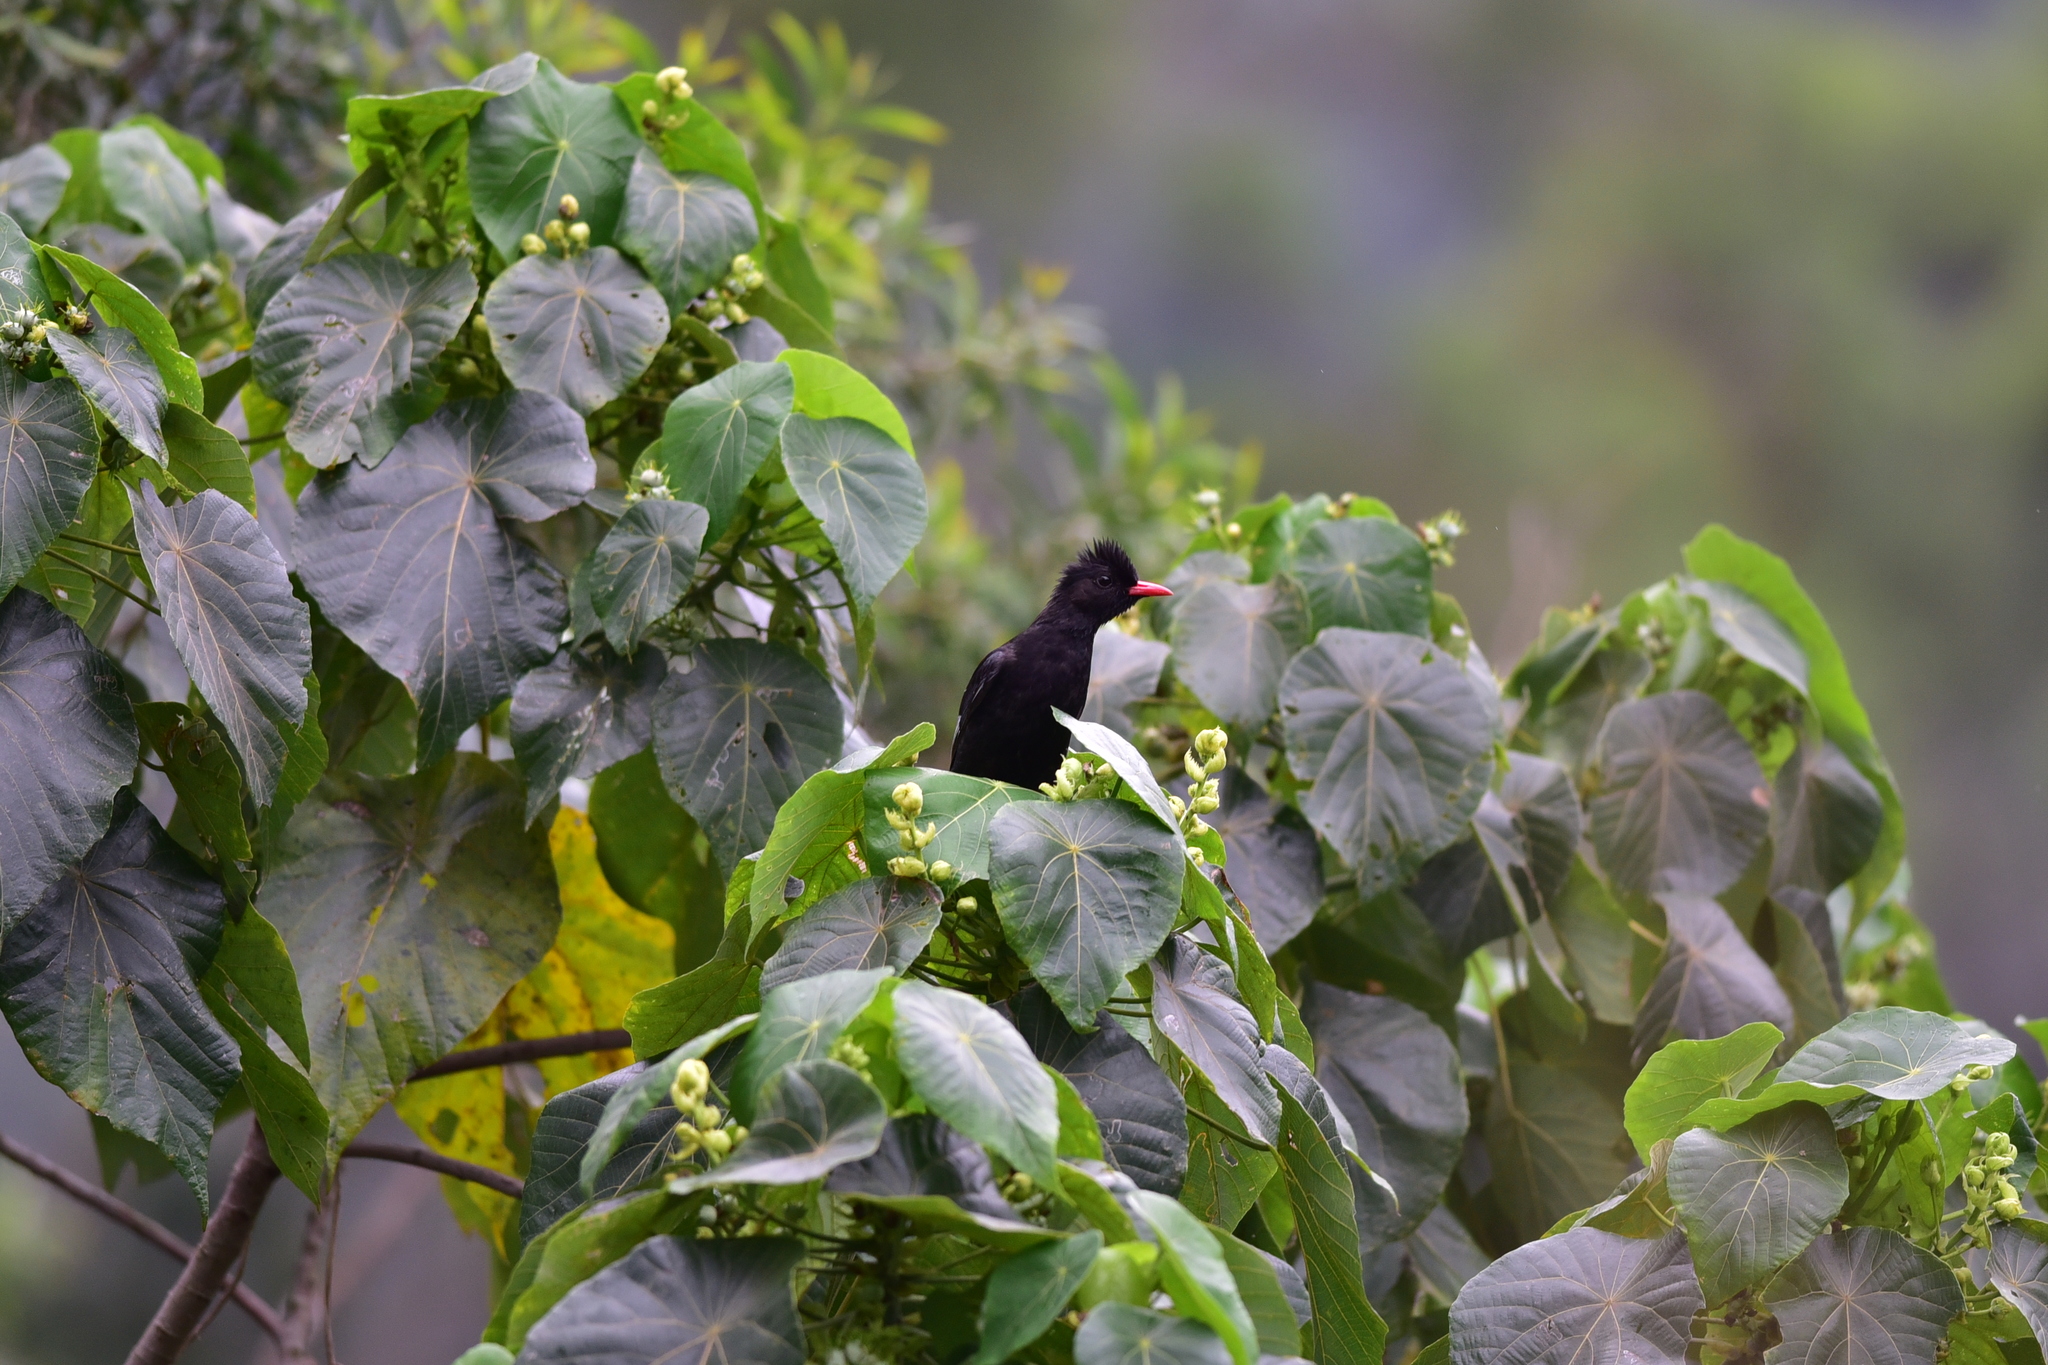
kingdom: Animalia
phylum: Chordata
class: Aves
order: Passeriformes
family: Pycnonotidae
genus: Hypsipetes
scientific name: Hypsipetes leucocephalus
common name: Black bulbul
